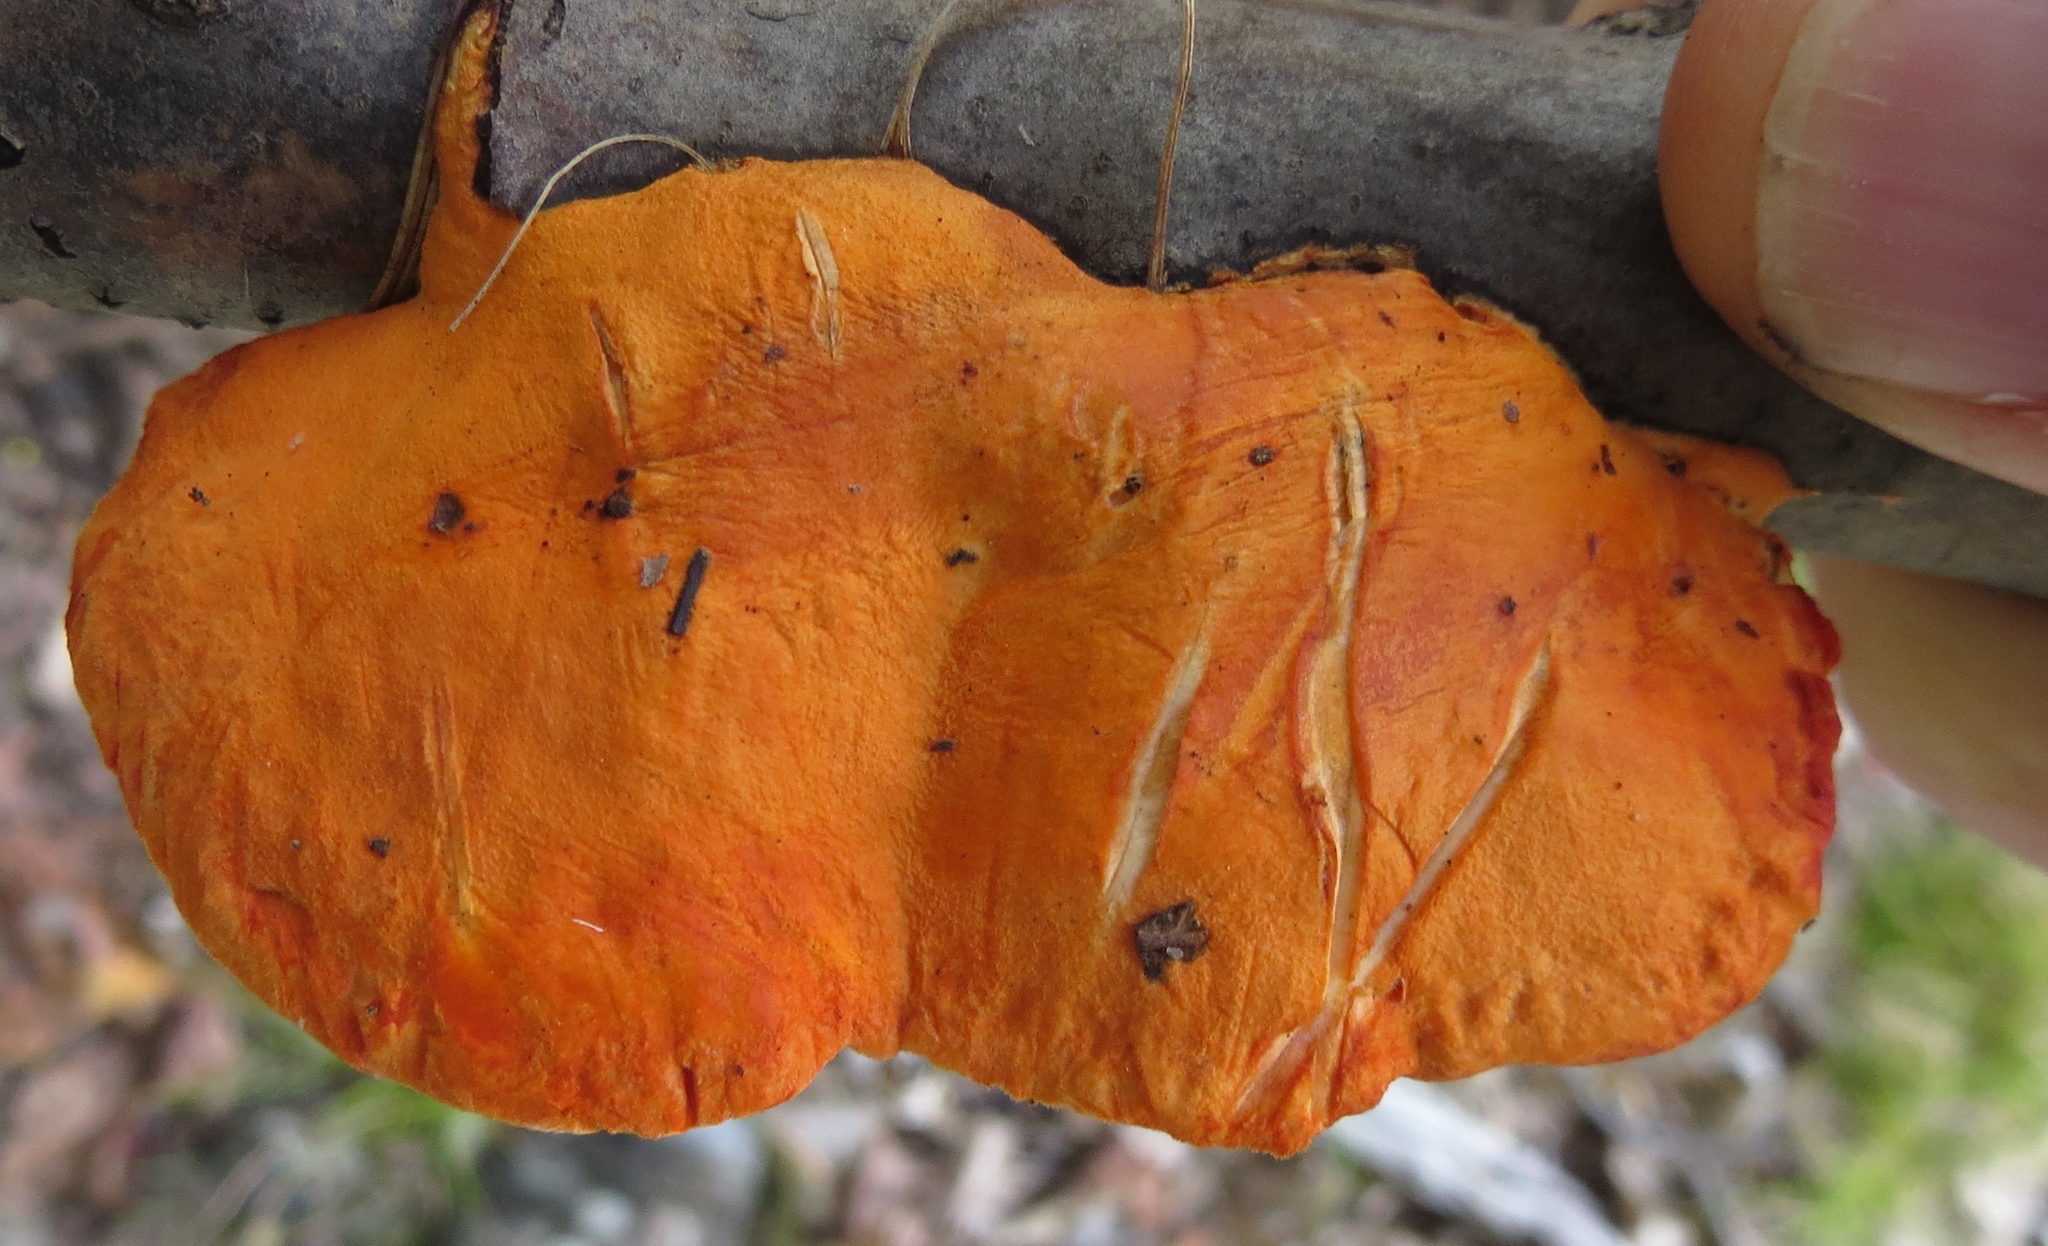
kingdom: Fungi
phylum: Basidiomycota
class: Agaricomycetes
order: Polyporales
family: Polyporaceae
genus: Trametes
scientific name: Trametes cinnabarina
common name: Northern cinnabar polypore
